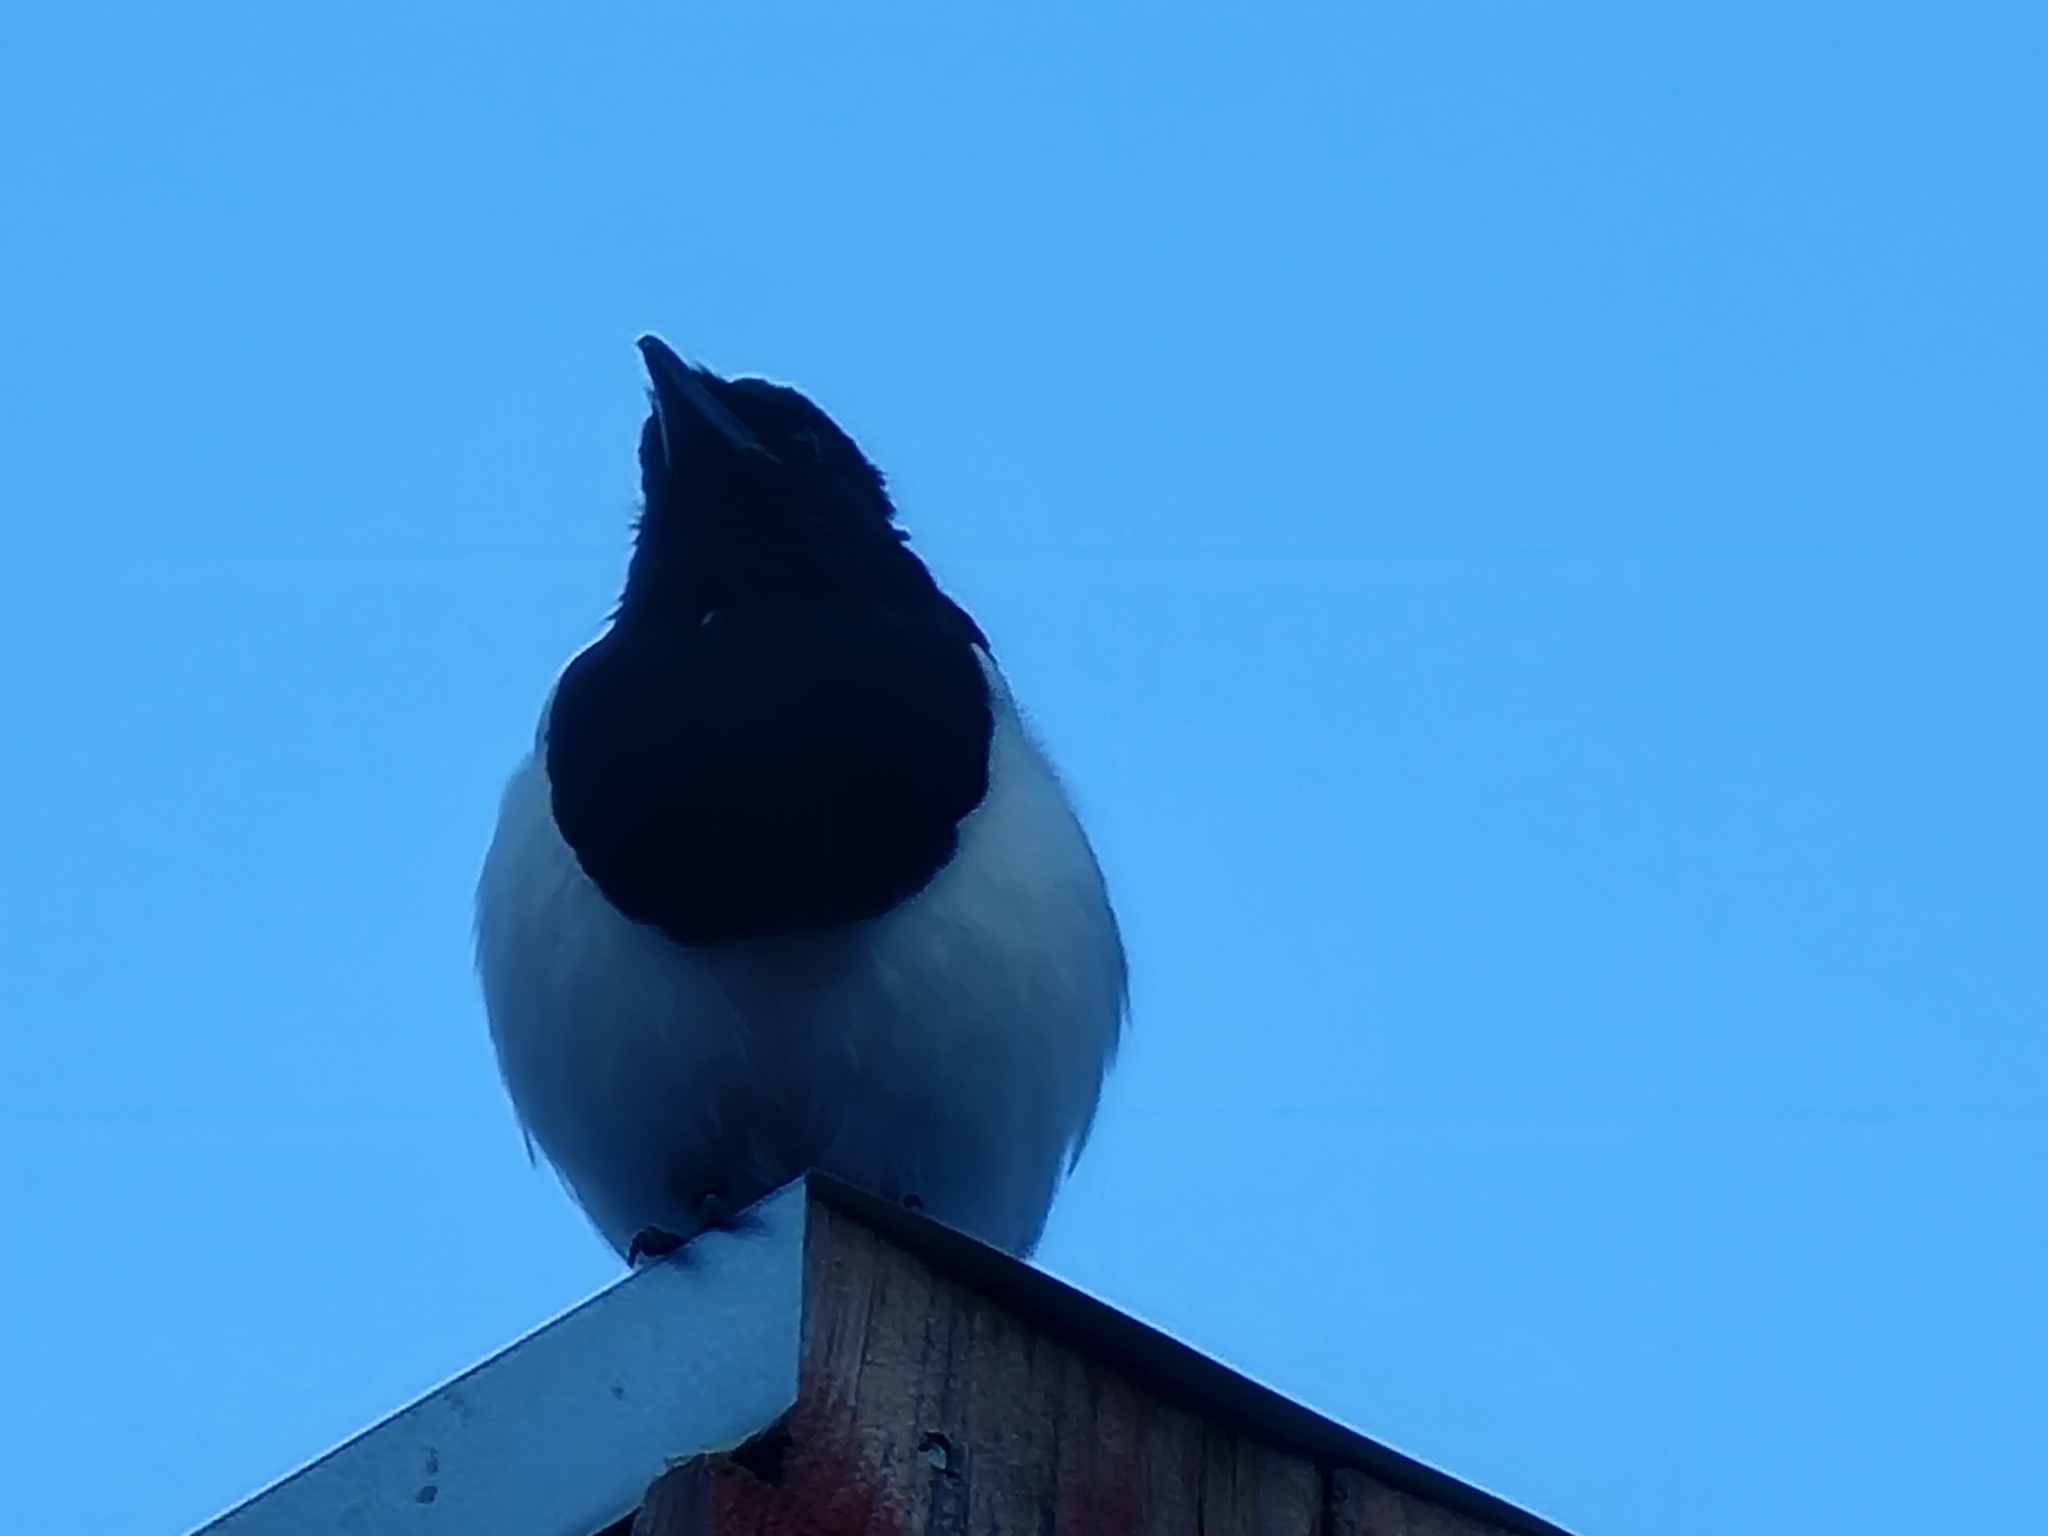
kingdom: Animalia
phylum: Chordata
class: Aves
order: Passeriformes
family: Corvidae
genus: Pica
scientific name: Pica hudsonia
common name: Black-billed magpie
